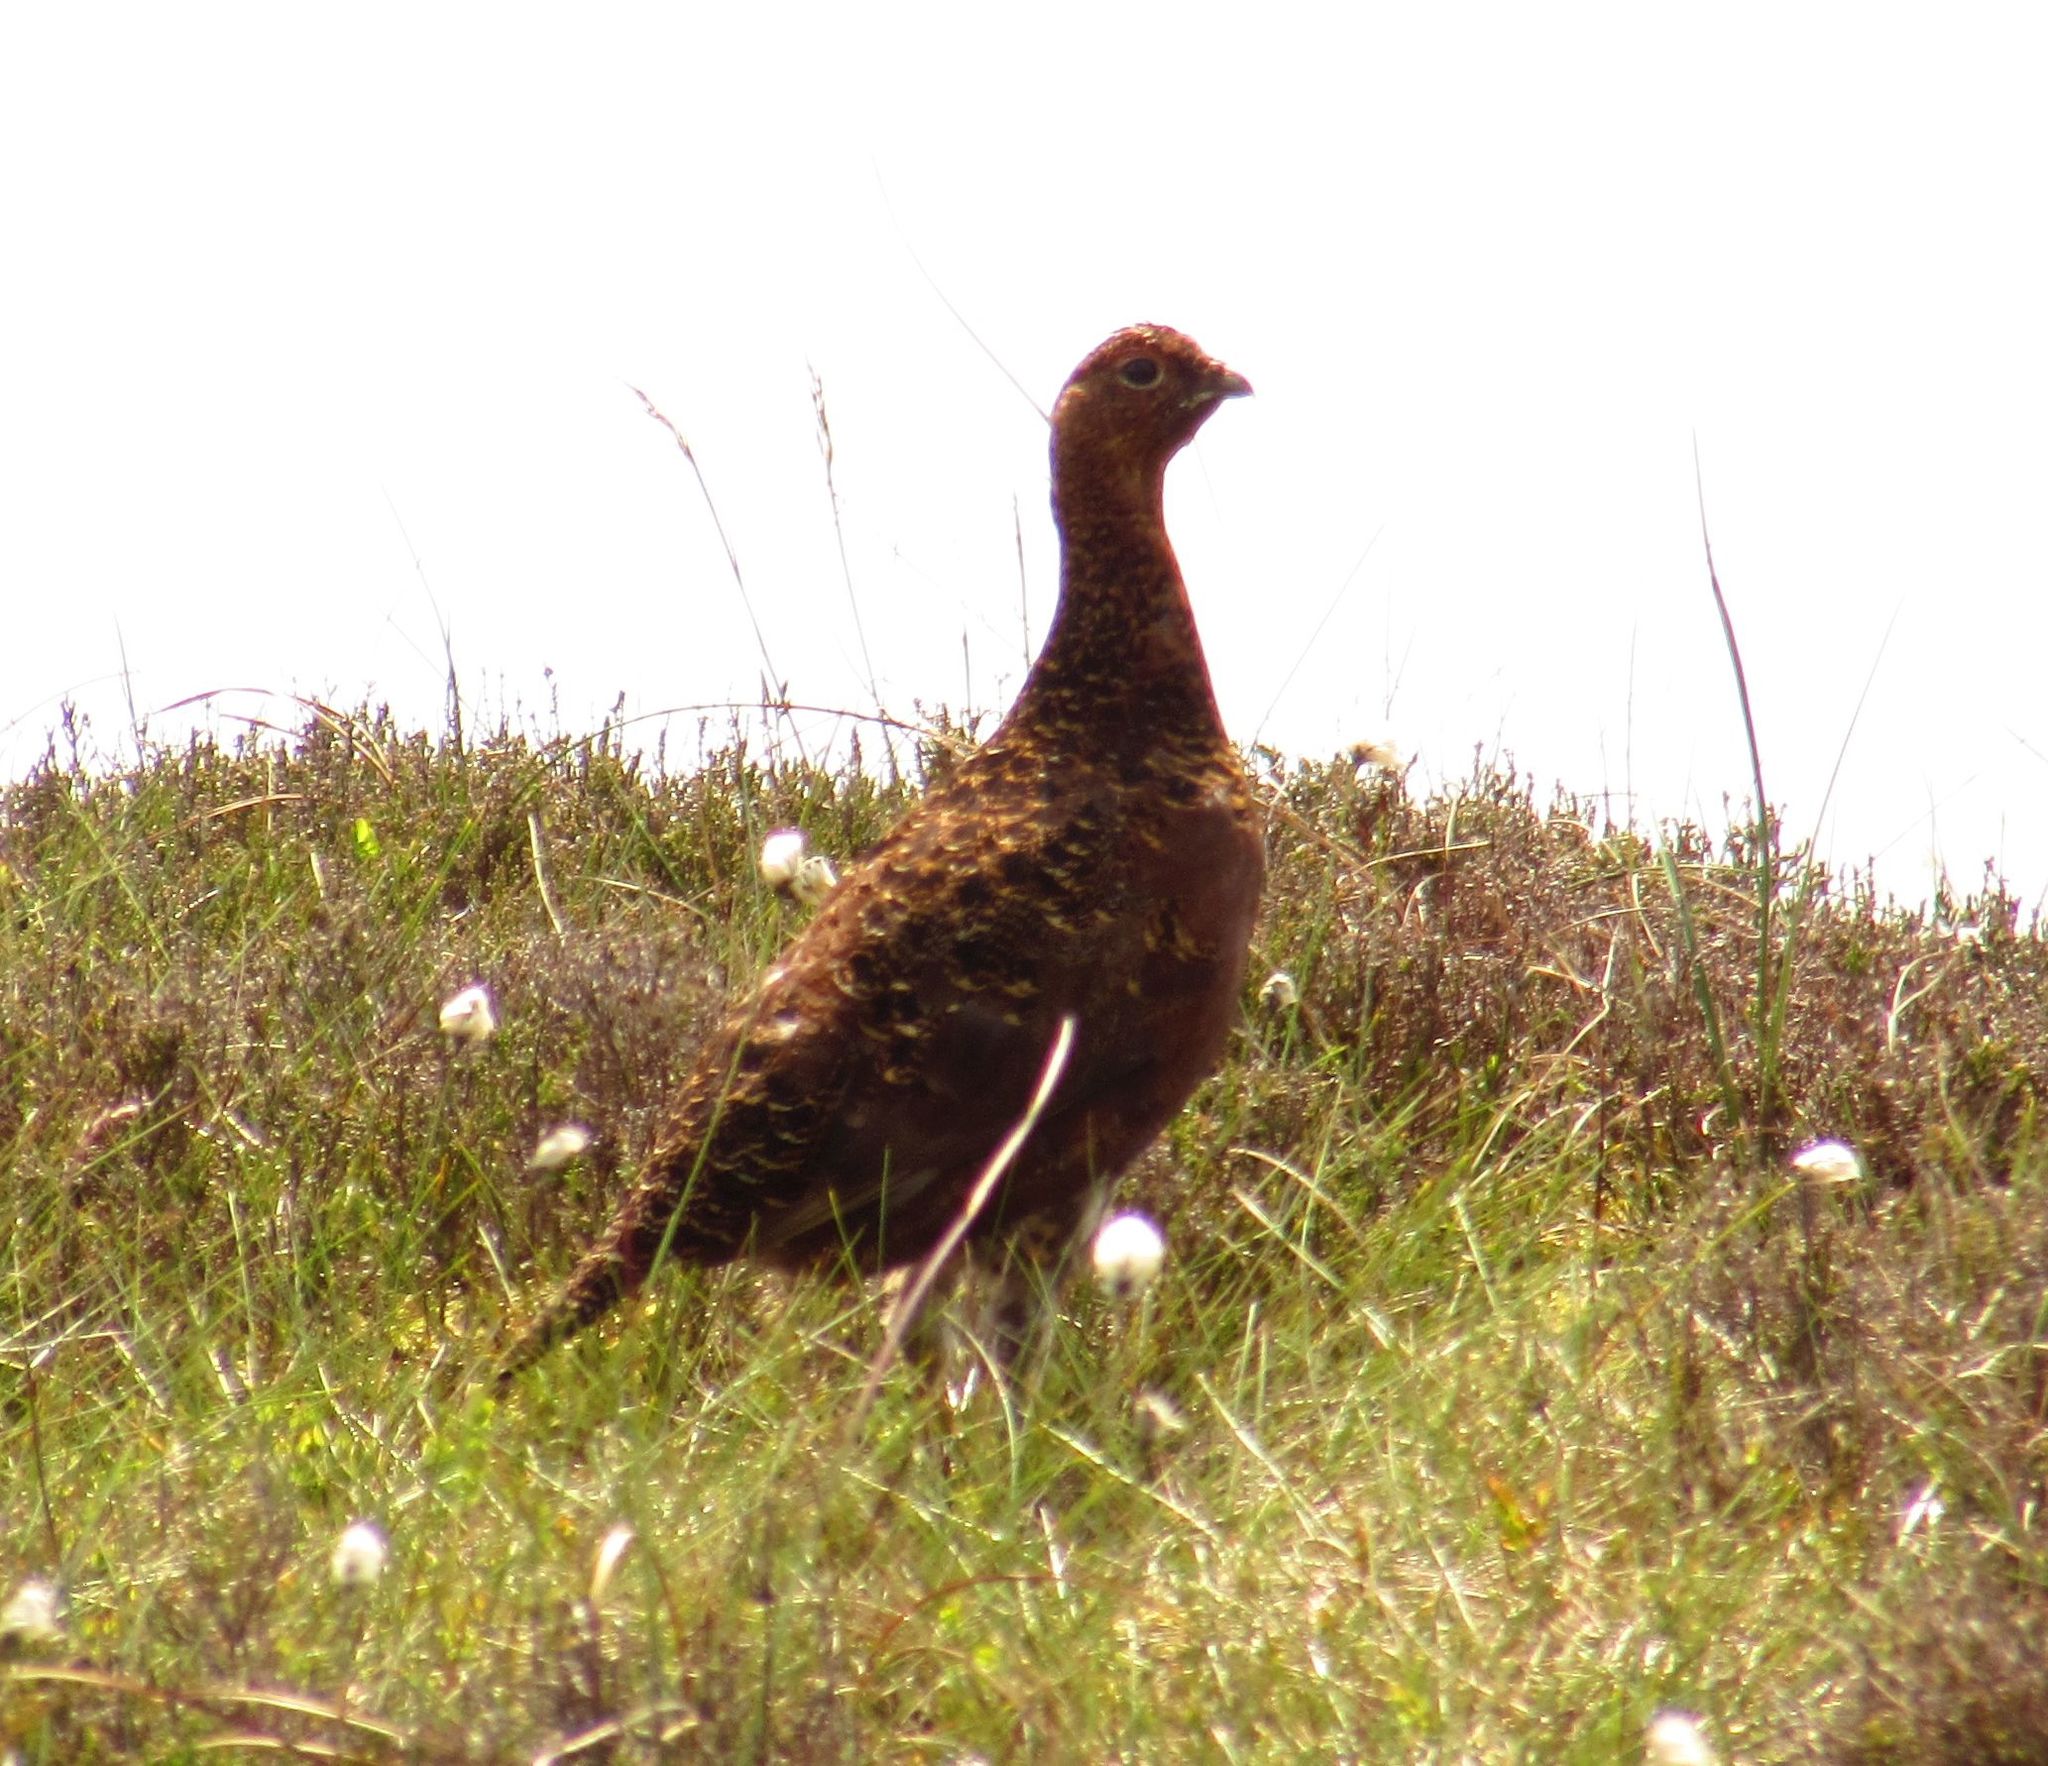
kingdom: Animalia
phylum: Chordata
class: Aves
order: Galliformes
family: Phasianidae
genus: Lagopus
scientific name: Lagopus lagopus
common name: Willow ptarmigan
